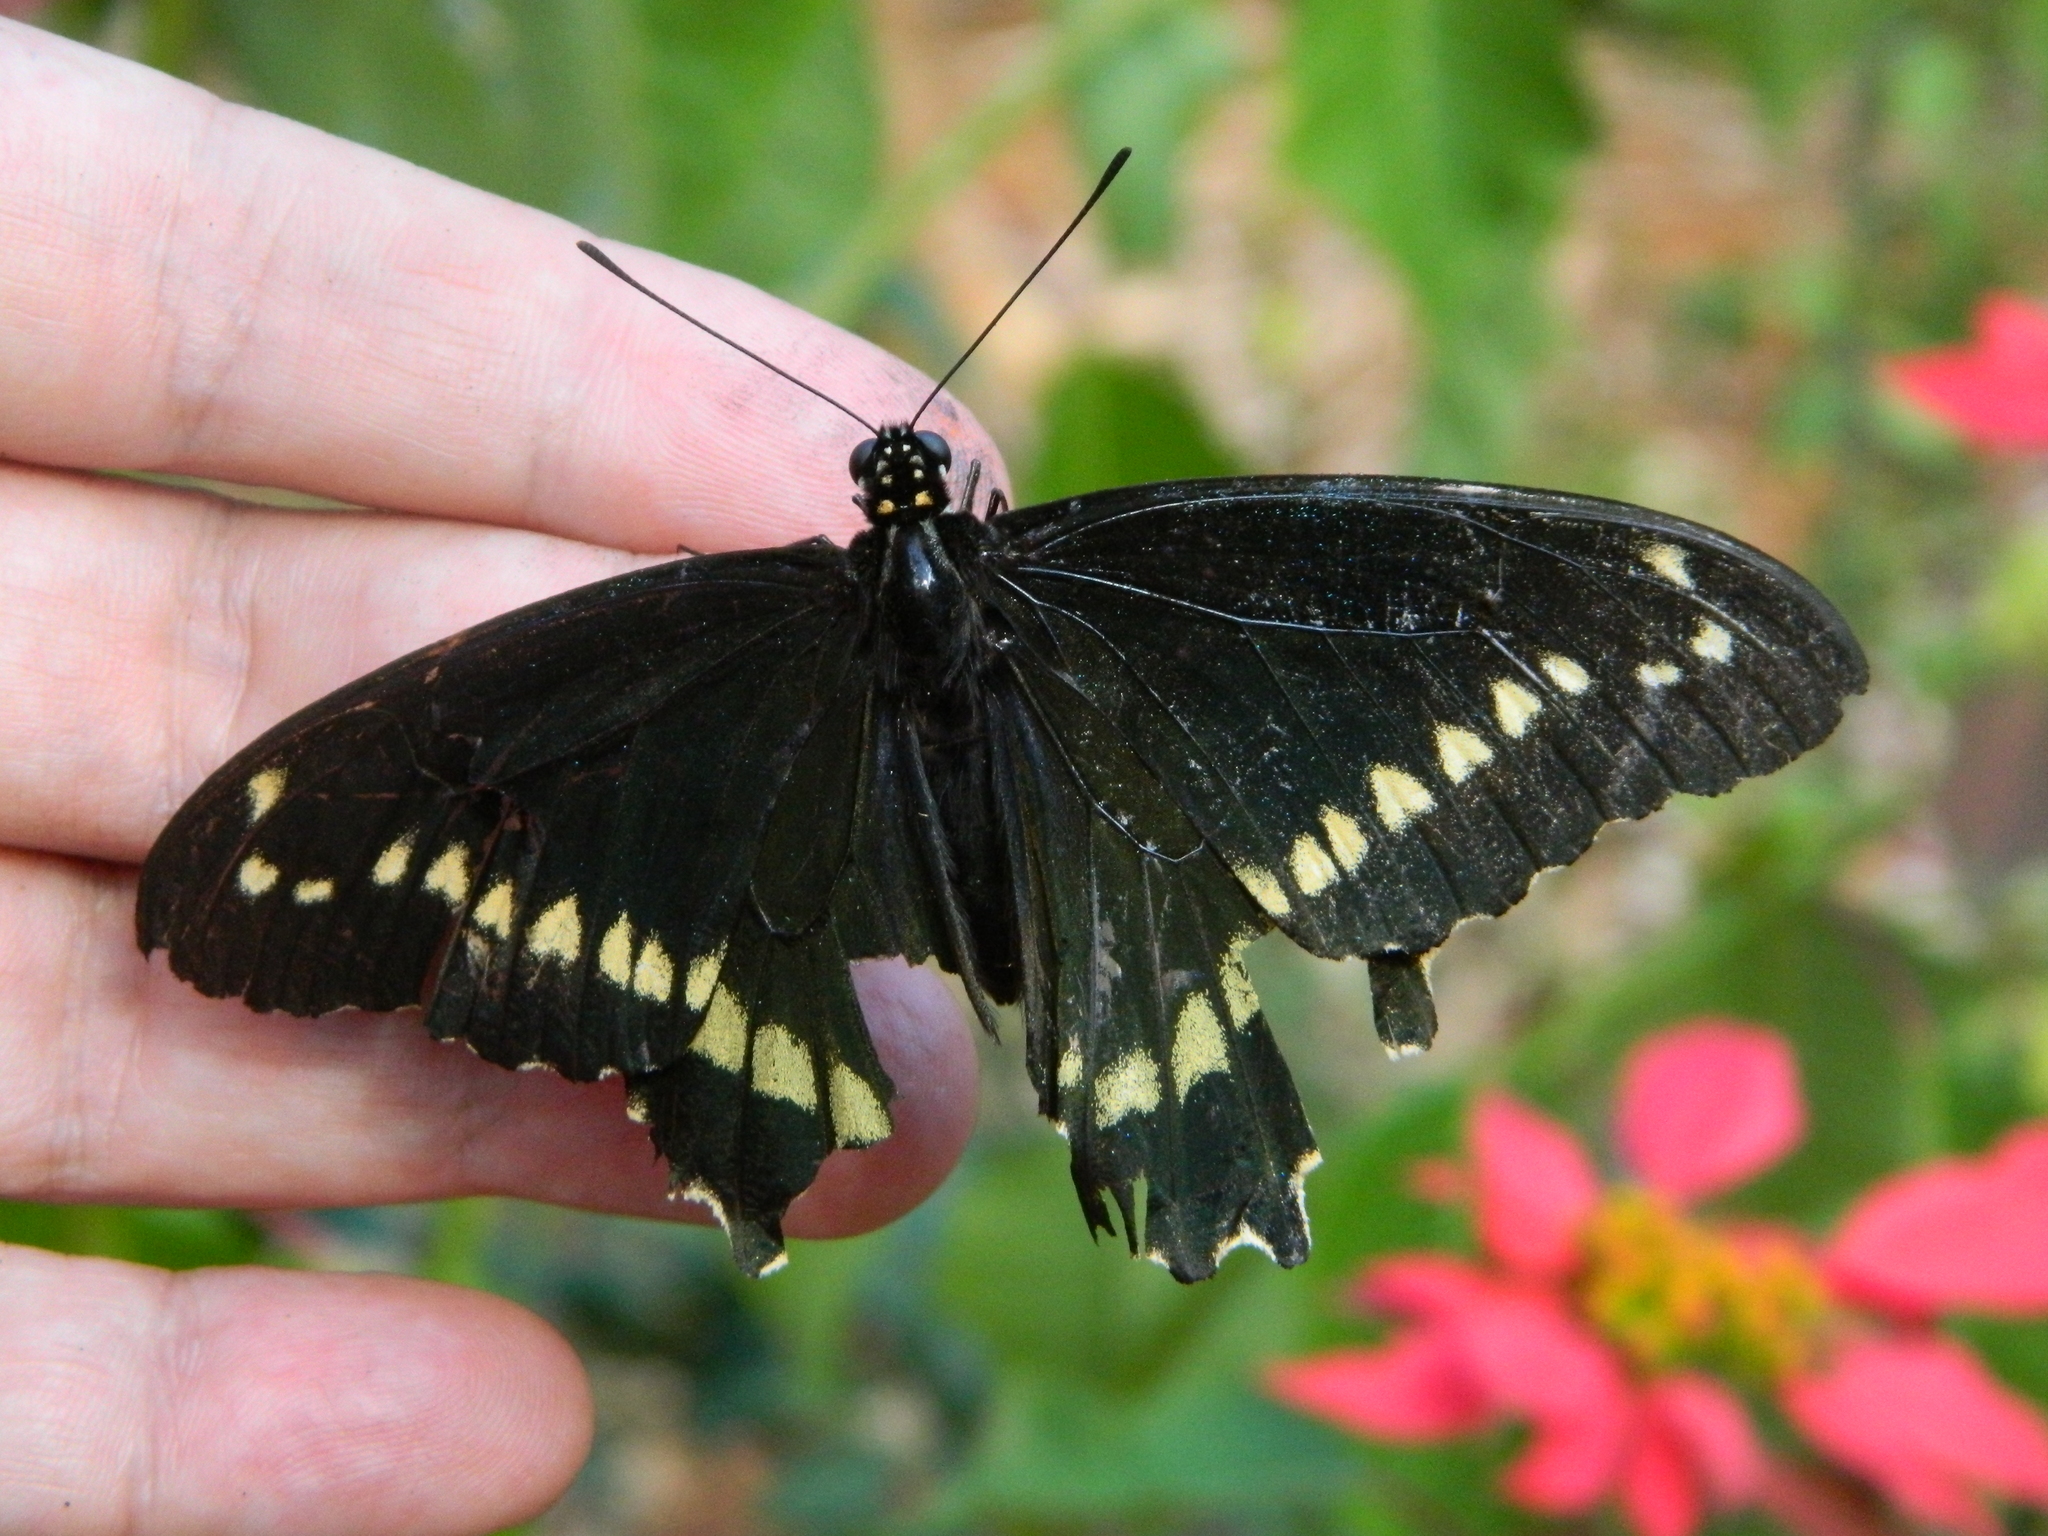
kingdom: Animalia
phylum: Arthropoda
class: Insecta
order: Lepidoptera
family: Papilionidae
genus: Battus
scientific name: Battus polydamas
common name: Polydamas swallowtail
